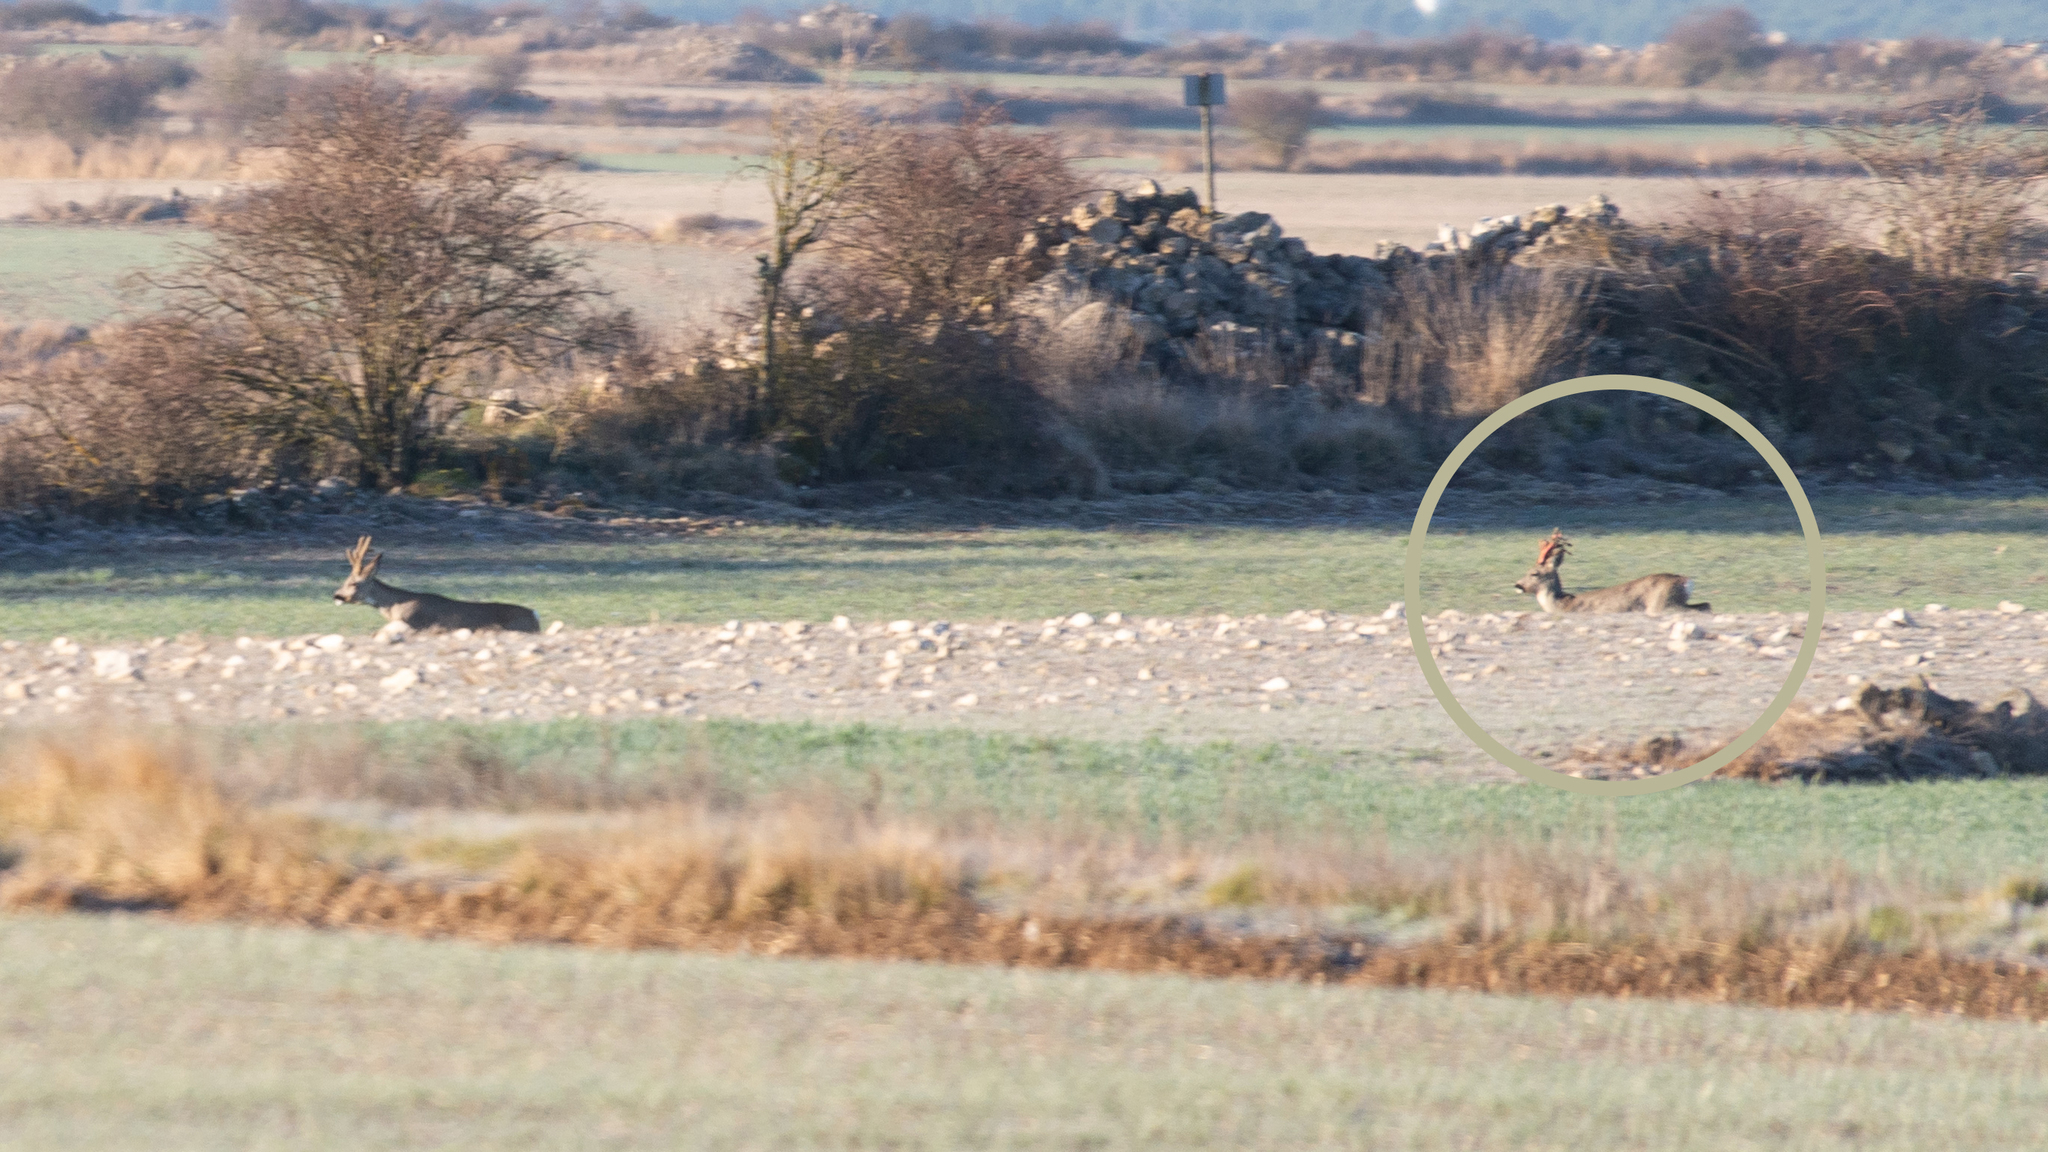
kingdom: Animalia
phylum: Chordata
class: Mammalia
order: Artiodactyla
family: Cervidae
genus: Capreolus
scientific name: Capreolus capreolus
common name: Western roe deer
